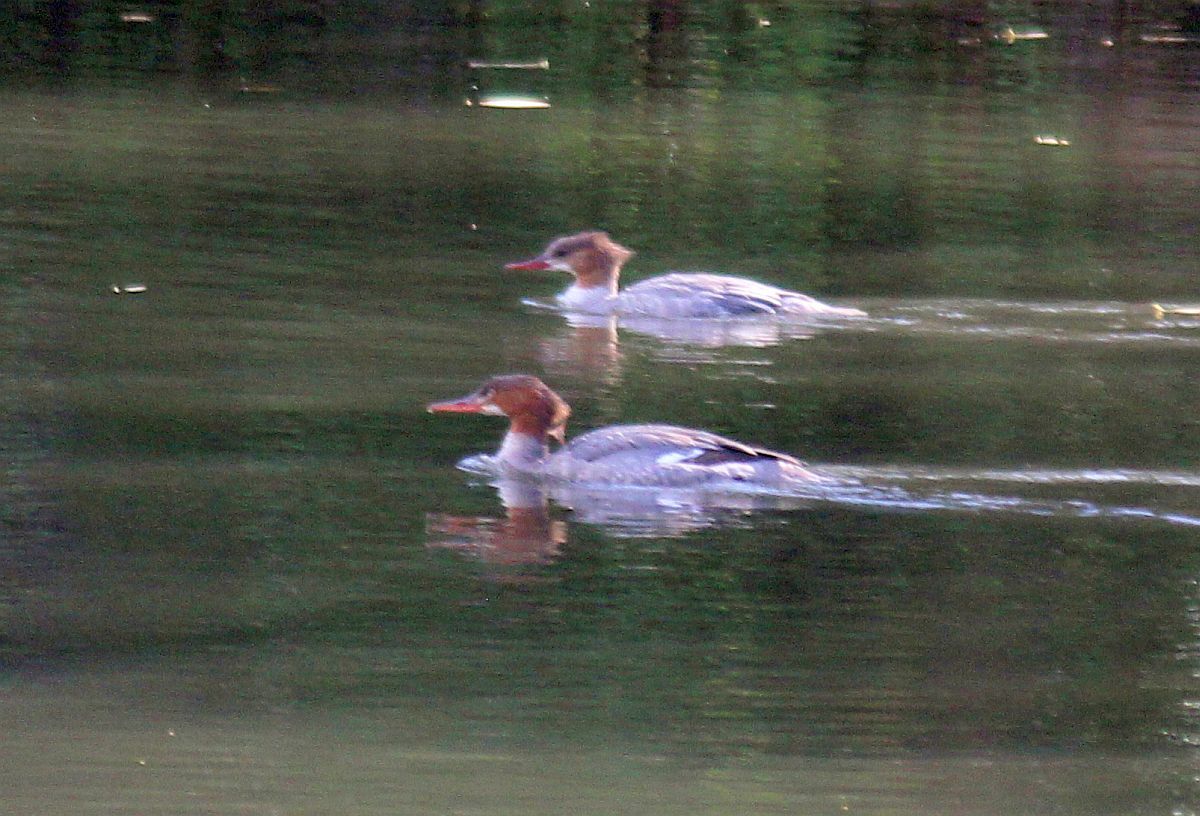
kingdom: Animalia
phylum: Chordata
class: Aves
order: Anseriformes
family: Anatidae
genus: Mergus
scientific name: Mergus merganser
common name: Common merganser
